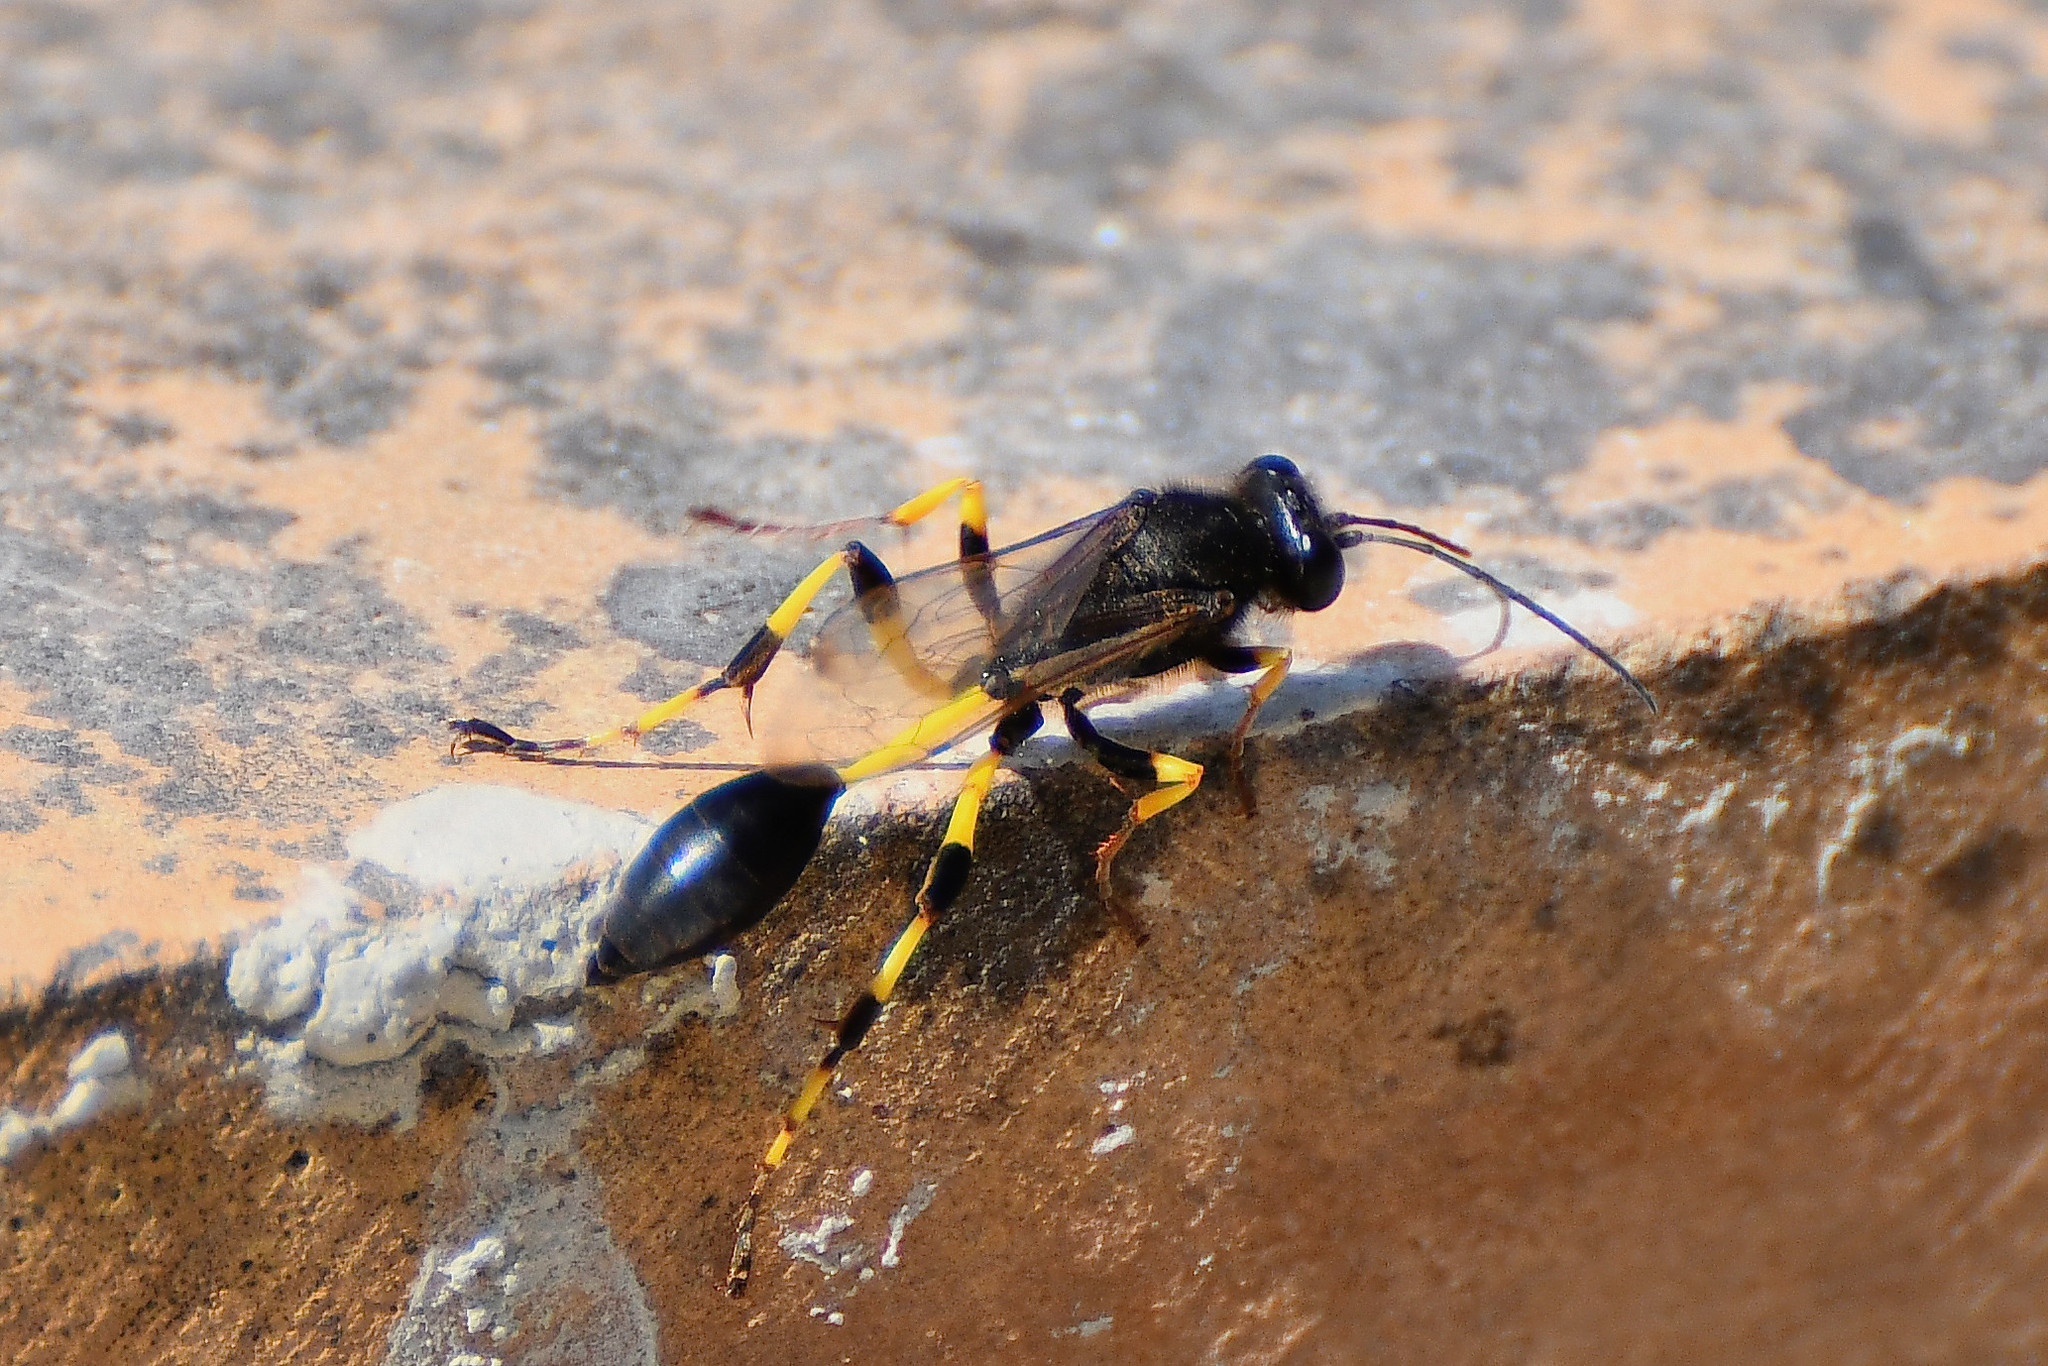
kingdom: Animalia
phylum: Arthropoda
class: Insecta
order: Hymenoptera
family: Sphecidae
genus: Sceliphron
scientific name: Sceliphron spirifex
